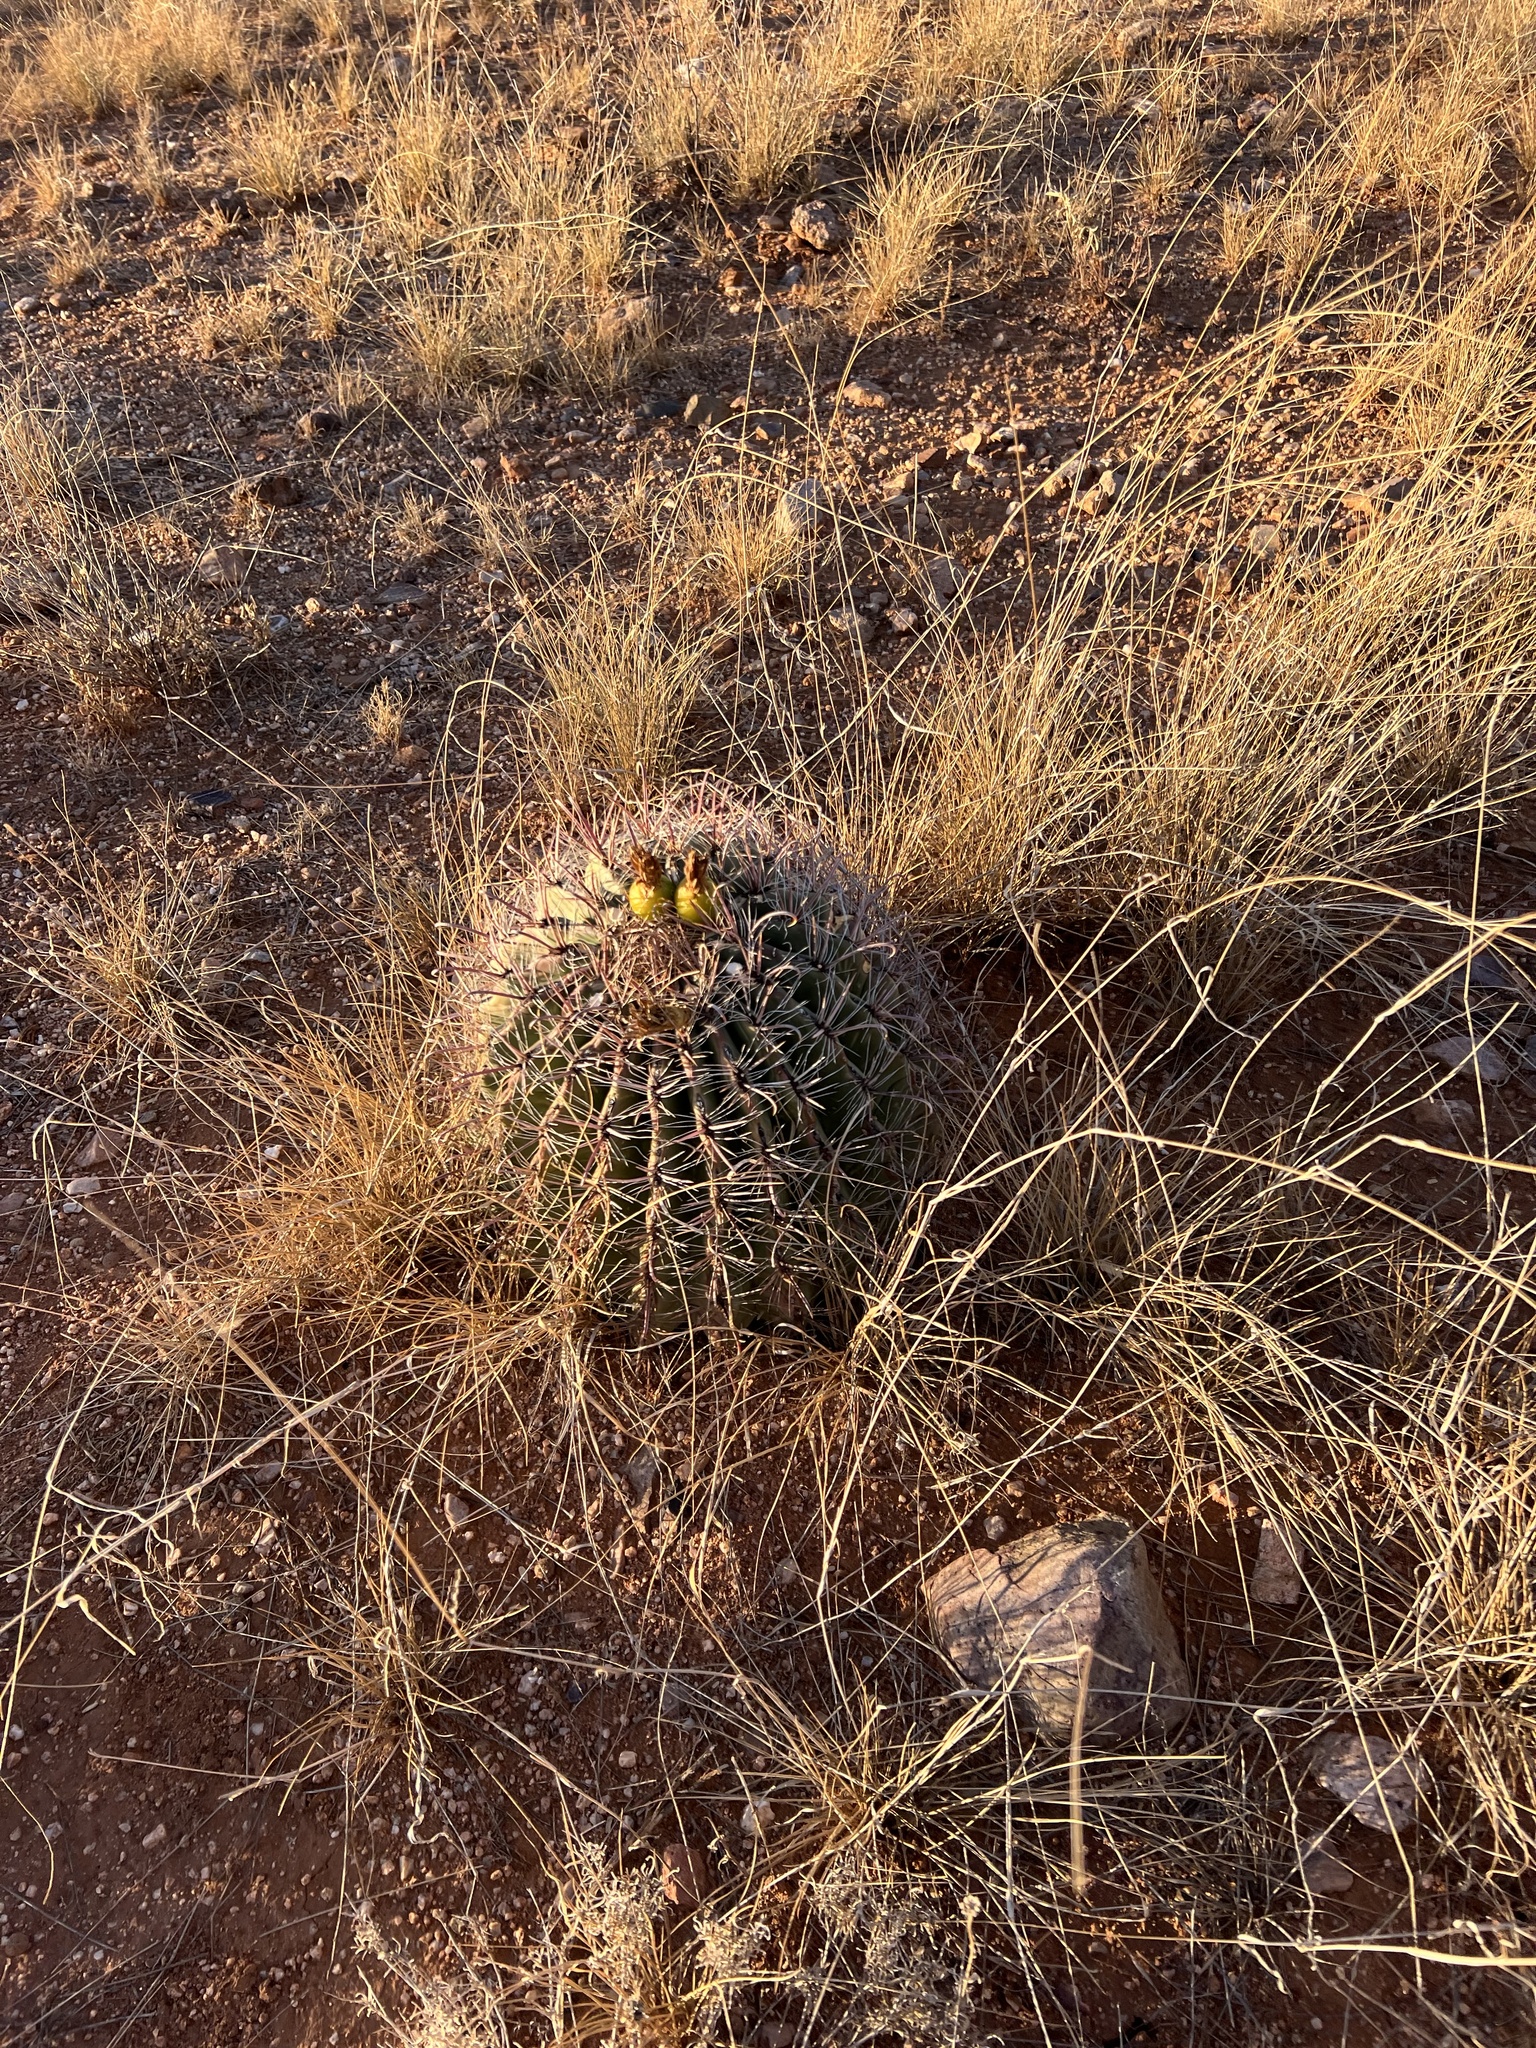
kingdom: Plantae
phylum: Tracheophyta
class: Magnoliopsida
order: Caryophyllales
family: Cactaceae
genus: Ferocactus
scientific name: Ferocactus wislizeni
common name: Candy barrel cactus
